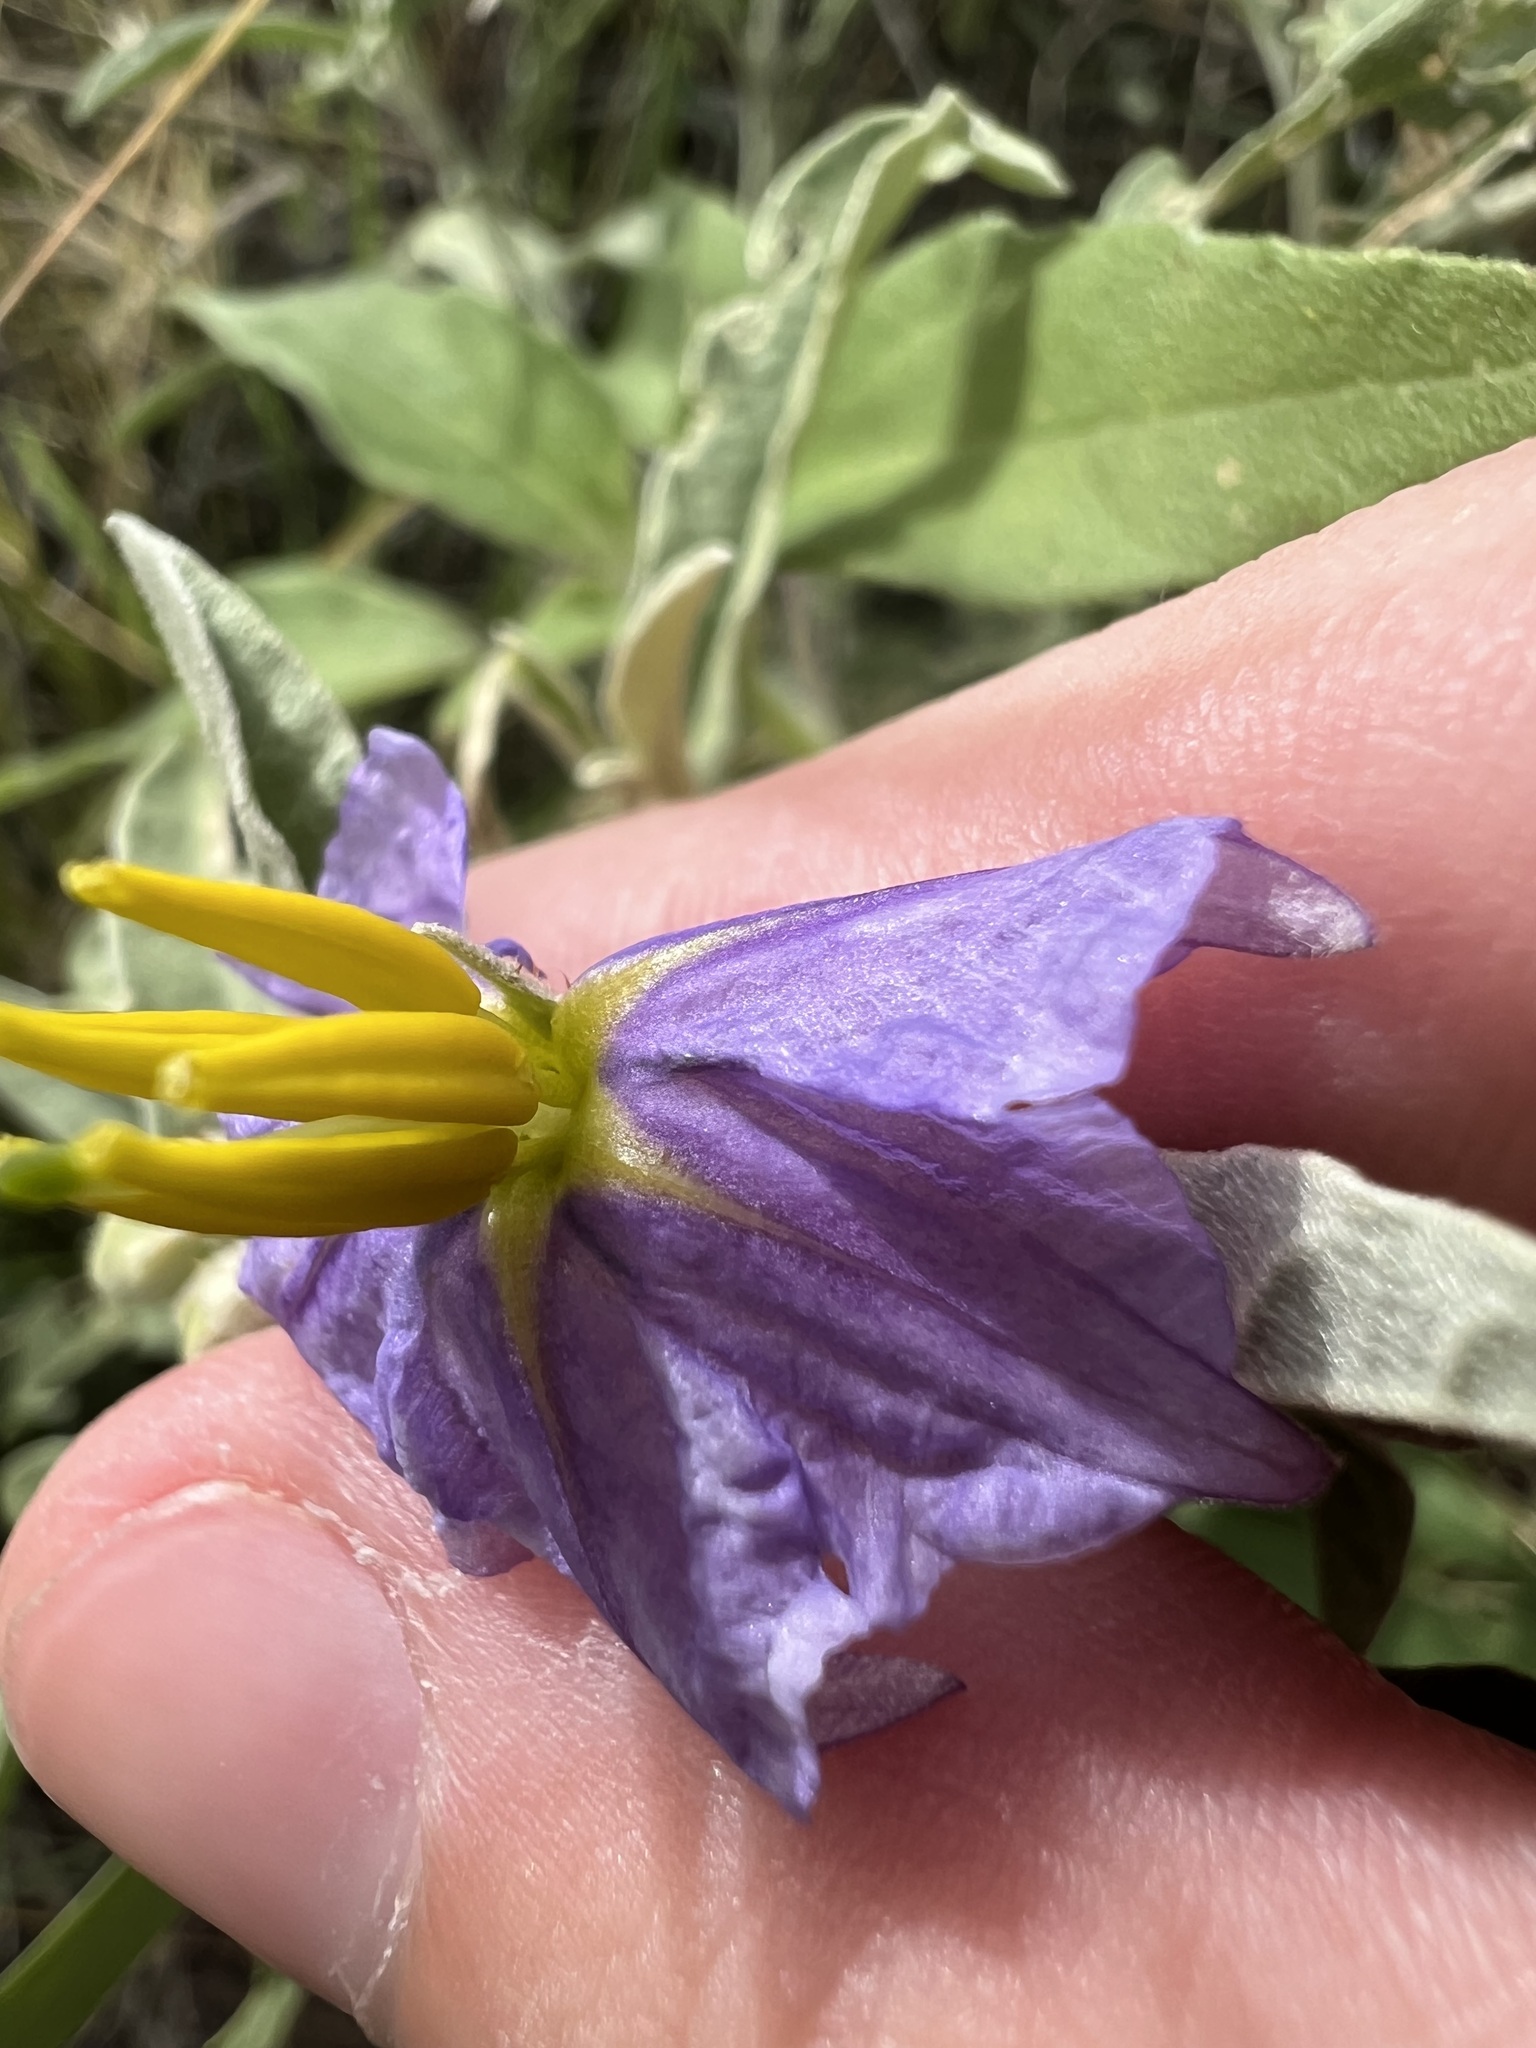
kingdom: Plantae
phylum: Tracheophyta
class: Magnoliopsida
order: Solanales
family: Solanaceae
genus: Solanum
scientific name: Solanum elaeagnifolium
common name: Silverleaf nightshade
